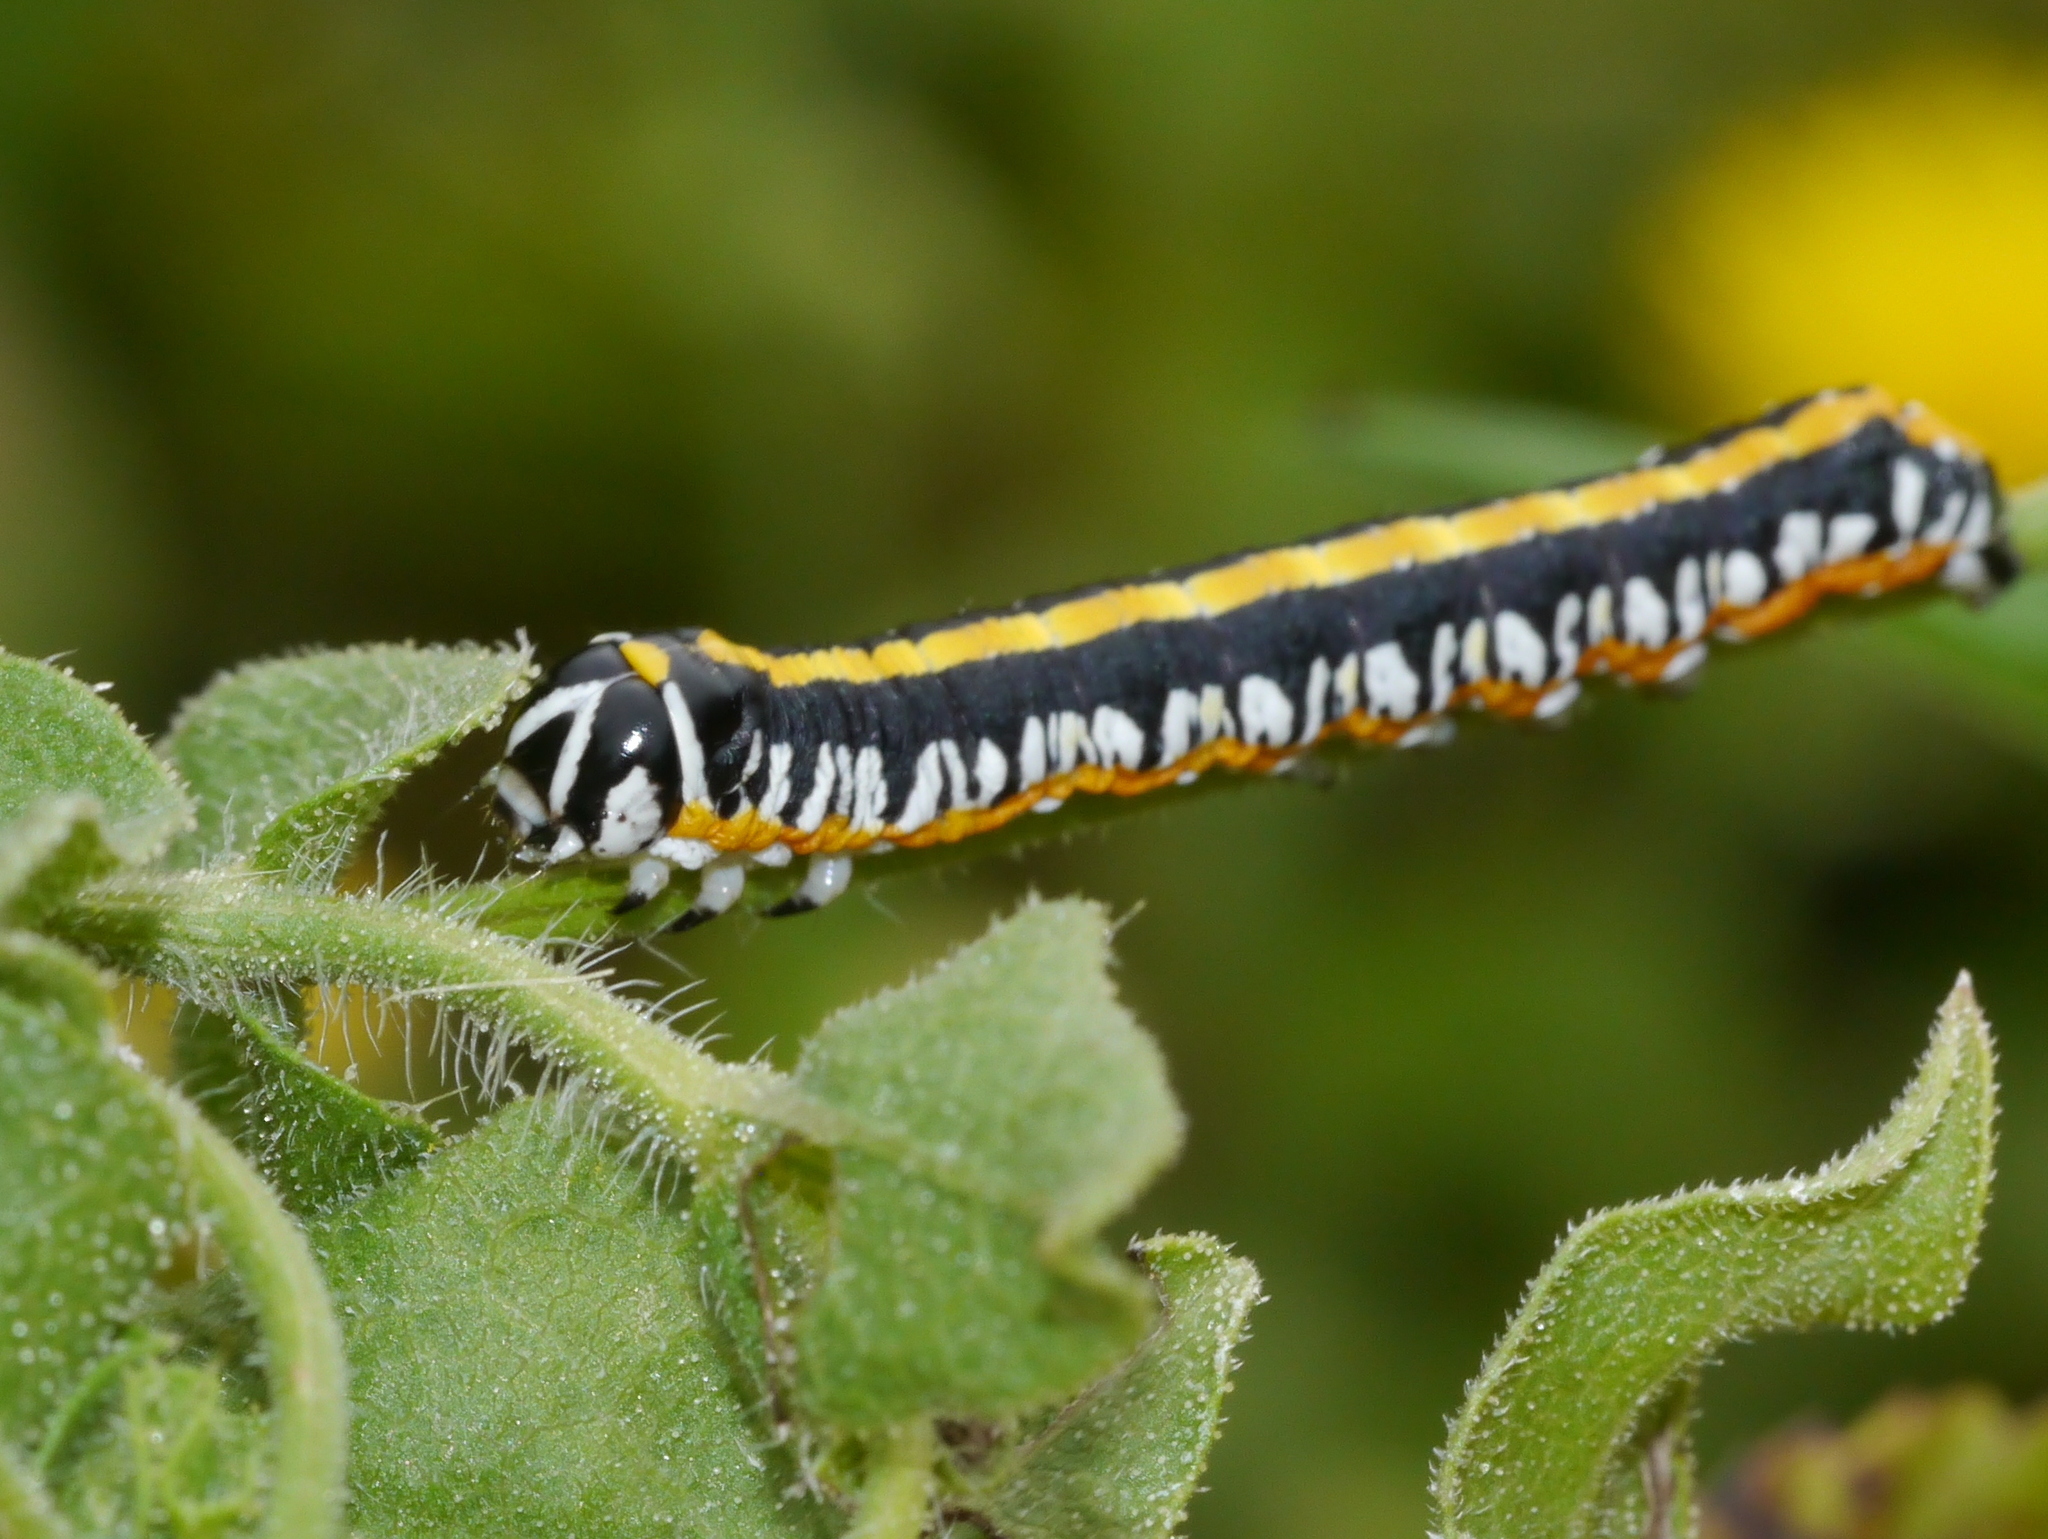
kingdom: Animalia
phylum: Arthropoda
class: Insecta
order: Lepidoptera
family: Noctuidae
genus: Cucullia
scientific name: Cucullia alfarata
